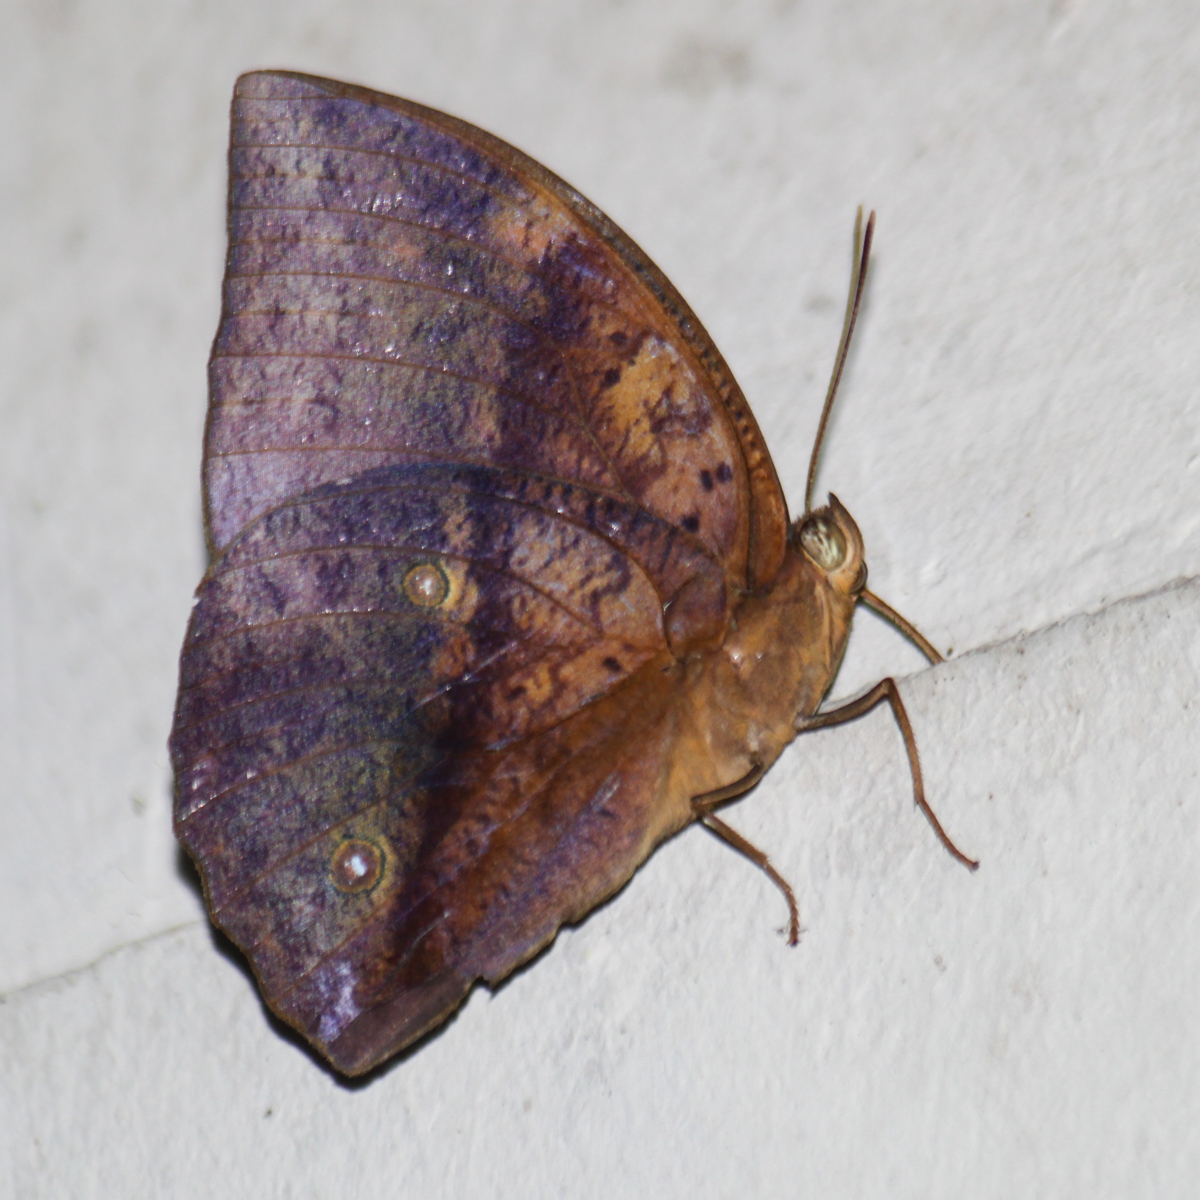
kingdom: Animalia
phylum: Arthropoda
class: Insecta
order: Lepidoptera
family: Nymphalidae
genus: Discophora
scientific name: Discophora timora
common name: Great duffer
